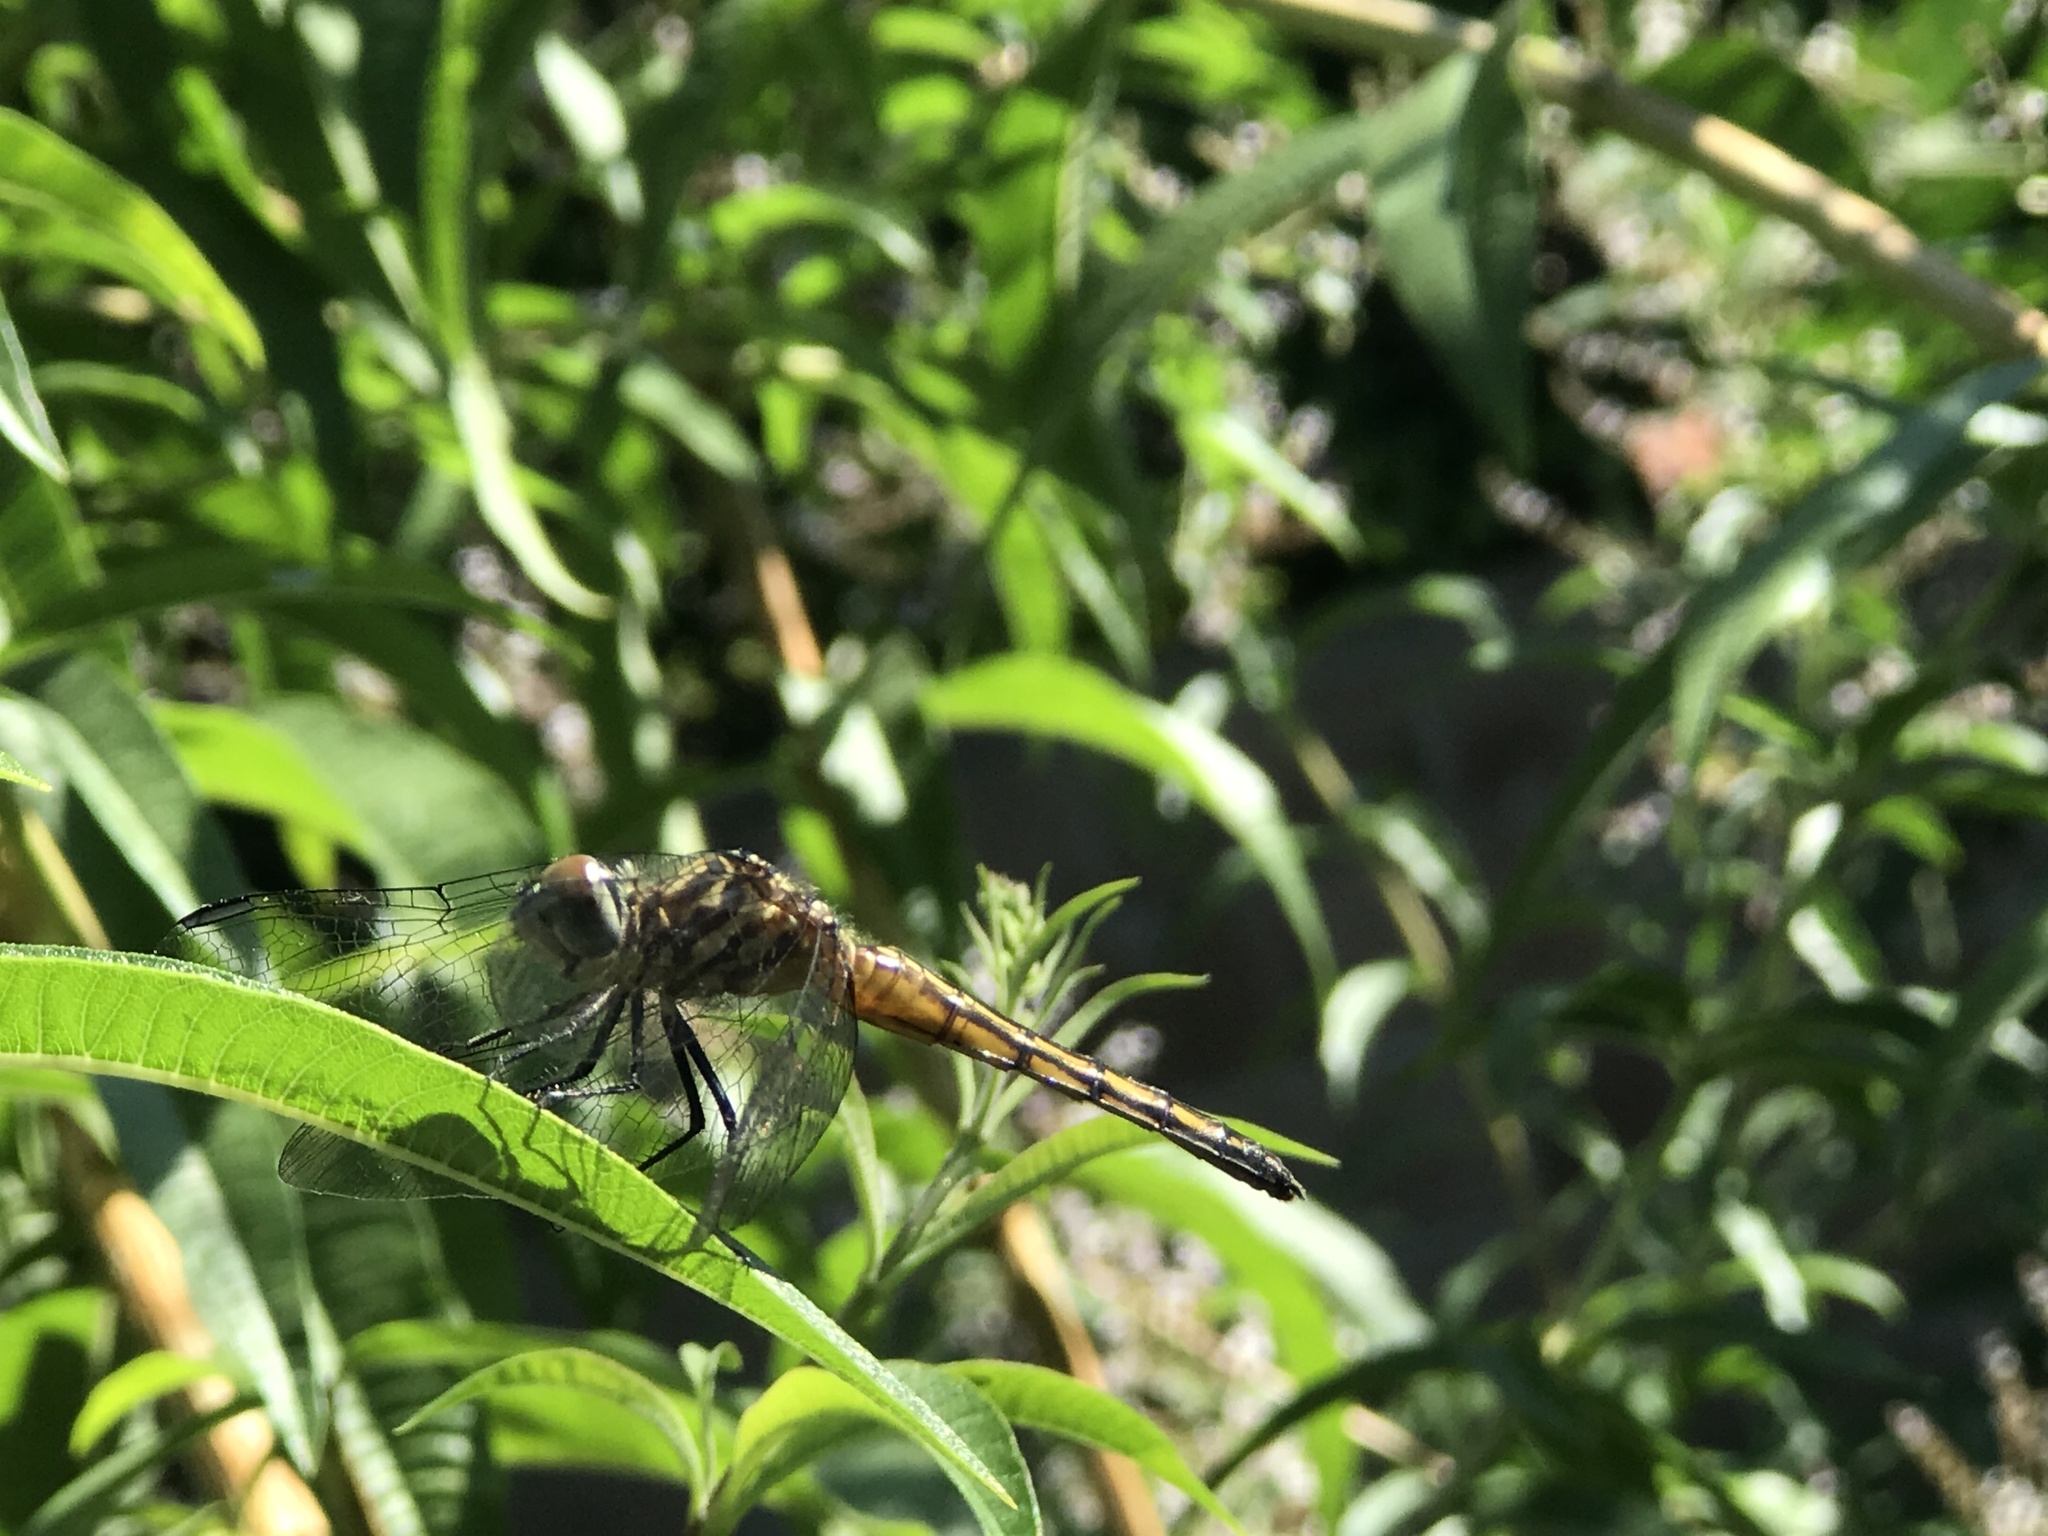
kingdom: Animalia
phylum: Arthropoda
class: Insecta
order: Odonata
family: Libellulidae
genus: Pachydiplax
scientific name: Pachydiplax longipennis
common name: Blue dasher
